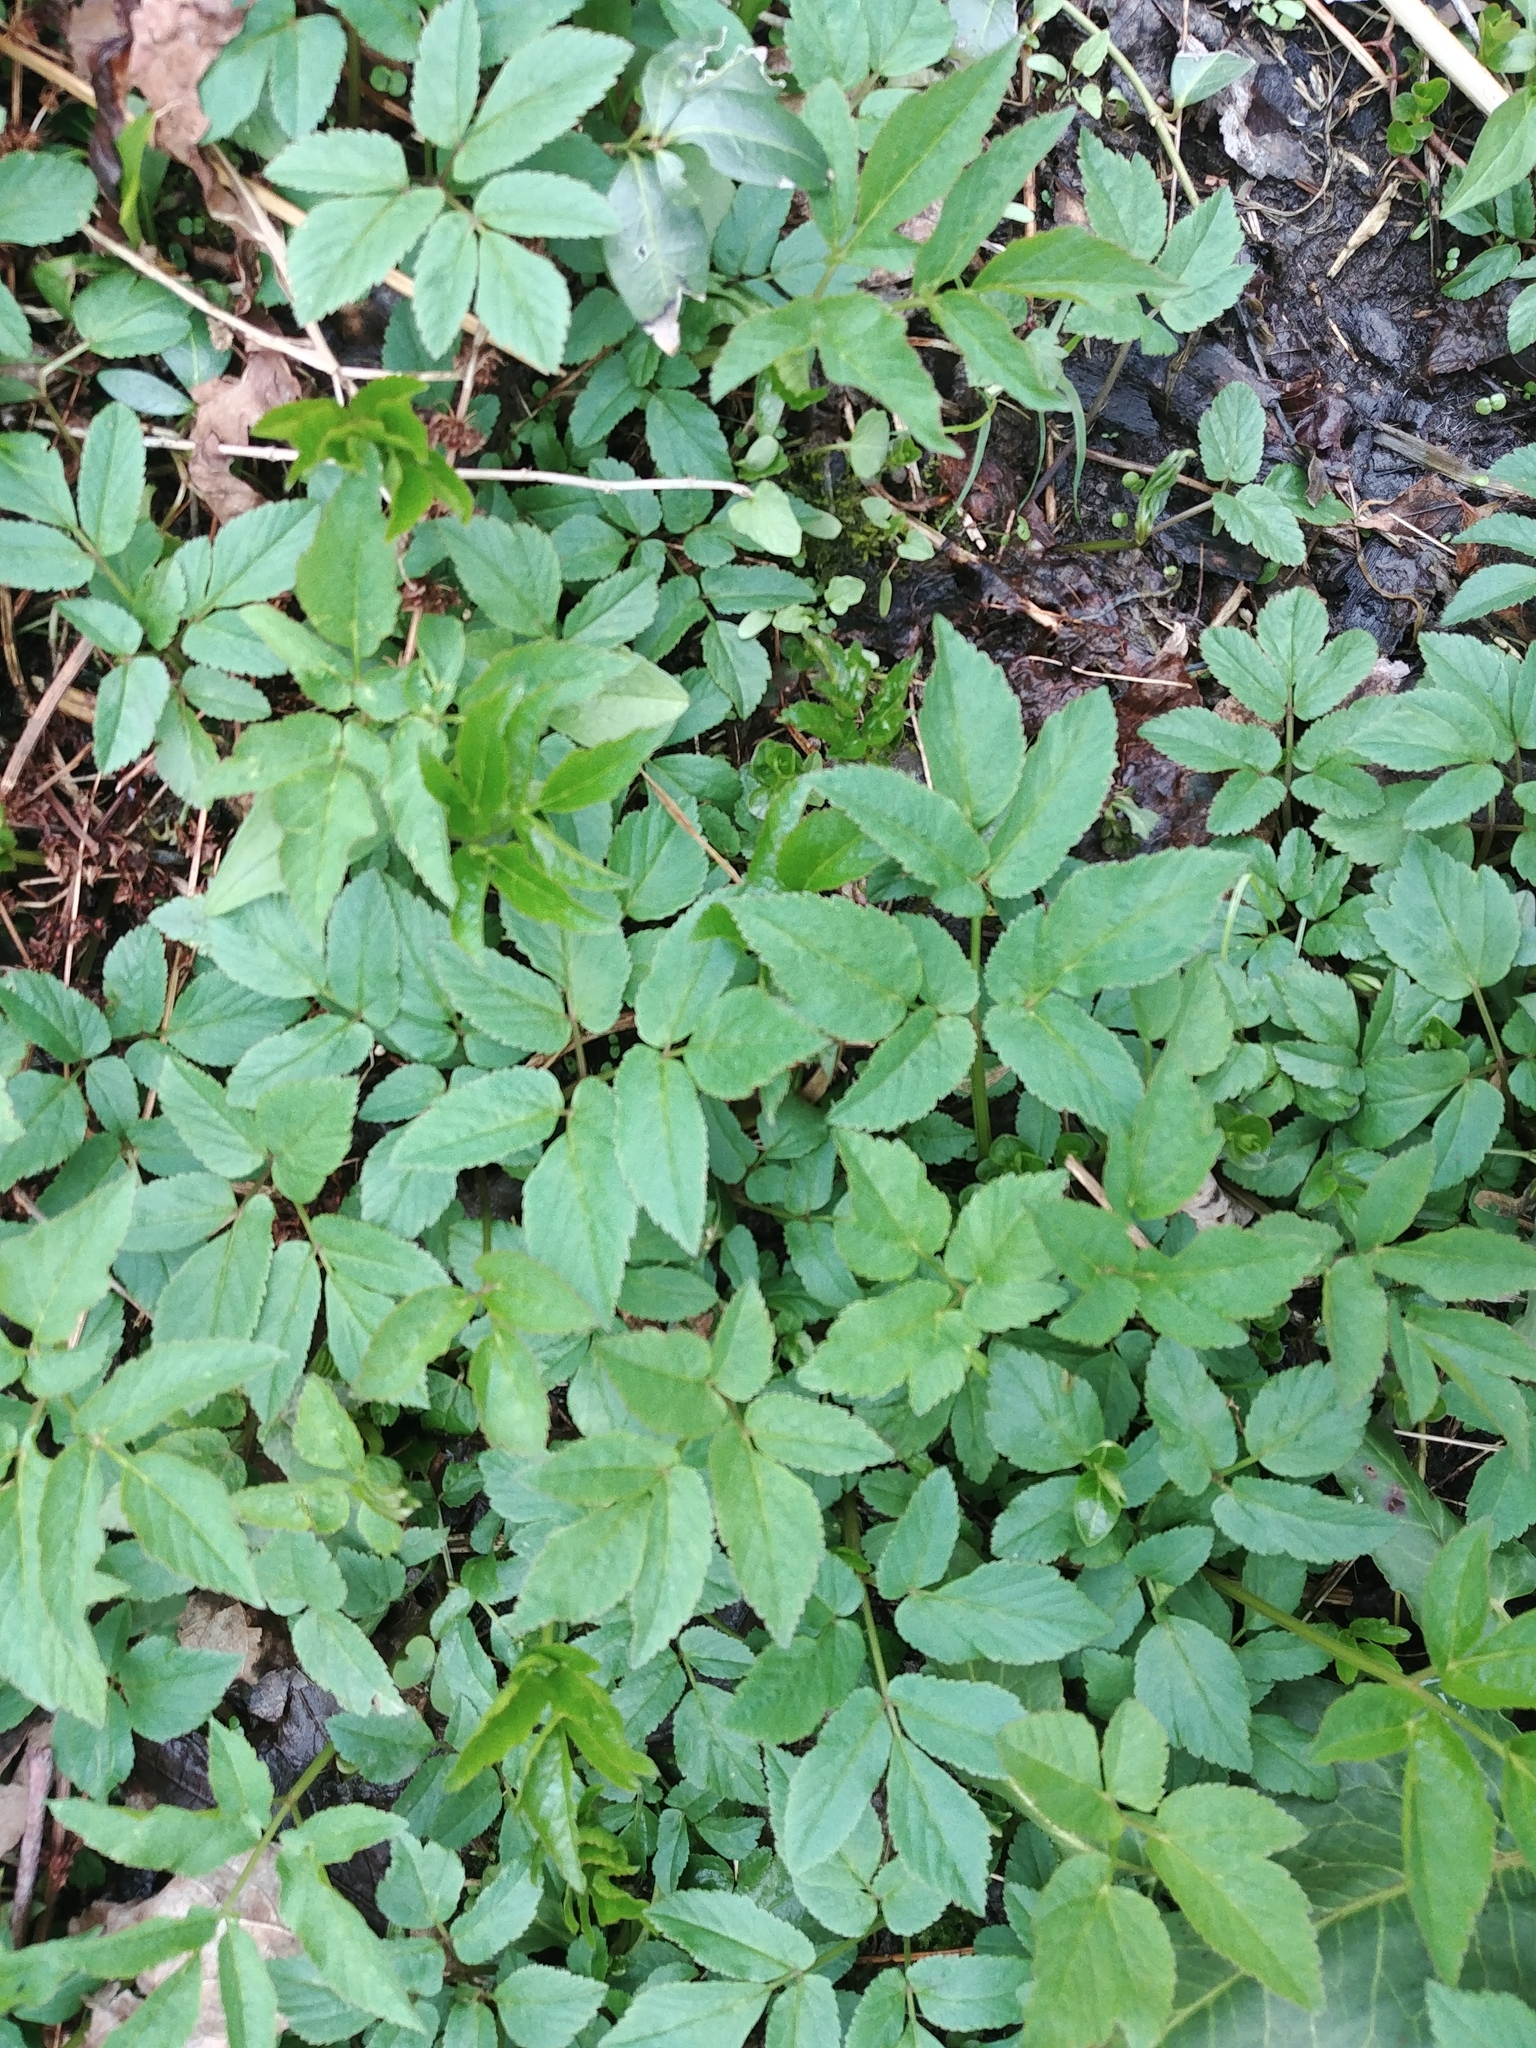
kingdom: Plantae
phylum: Tracheophyta
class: Magnoliopsida
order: Apiales
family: Apiaceae
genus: Aegopodium
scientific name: Aegopodium podagraria
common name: Ground-elder
